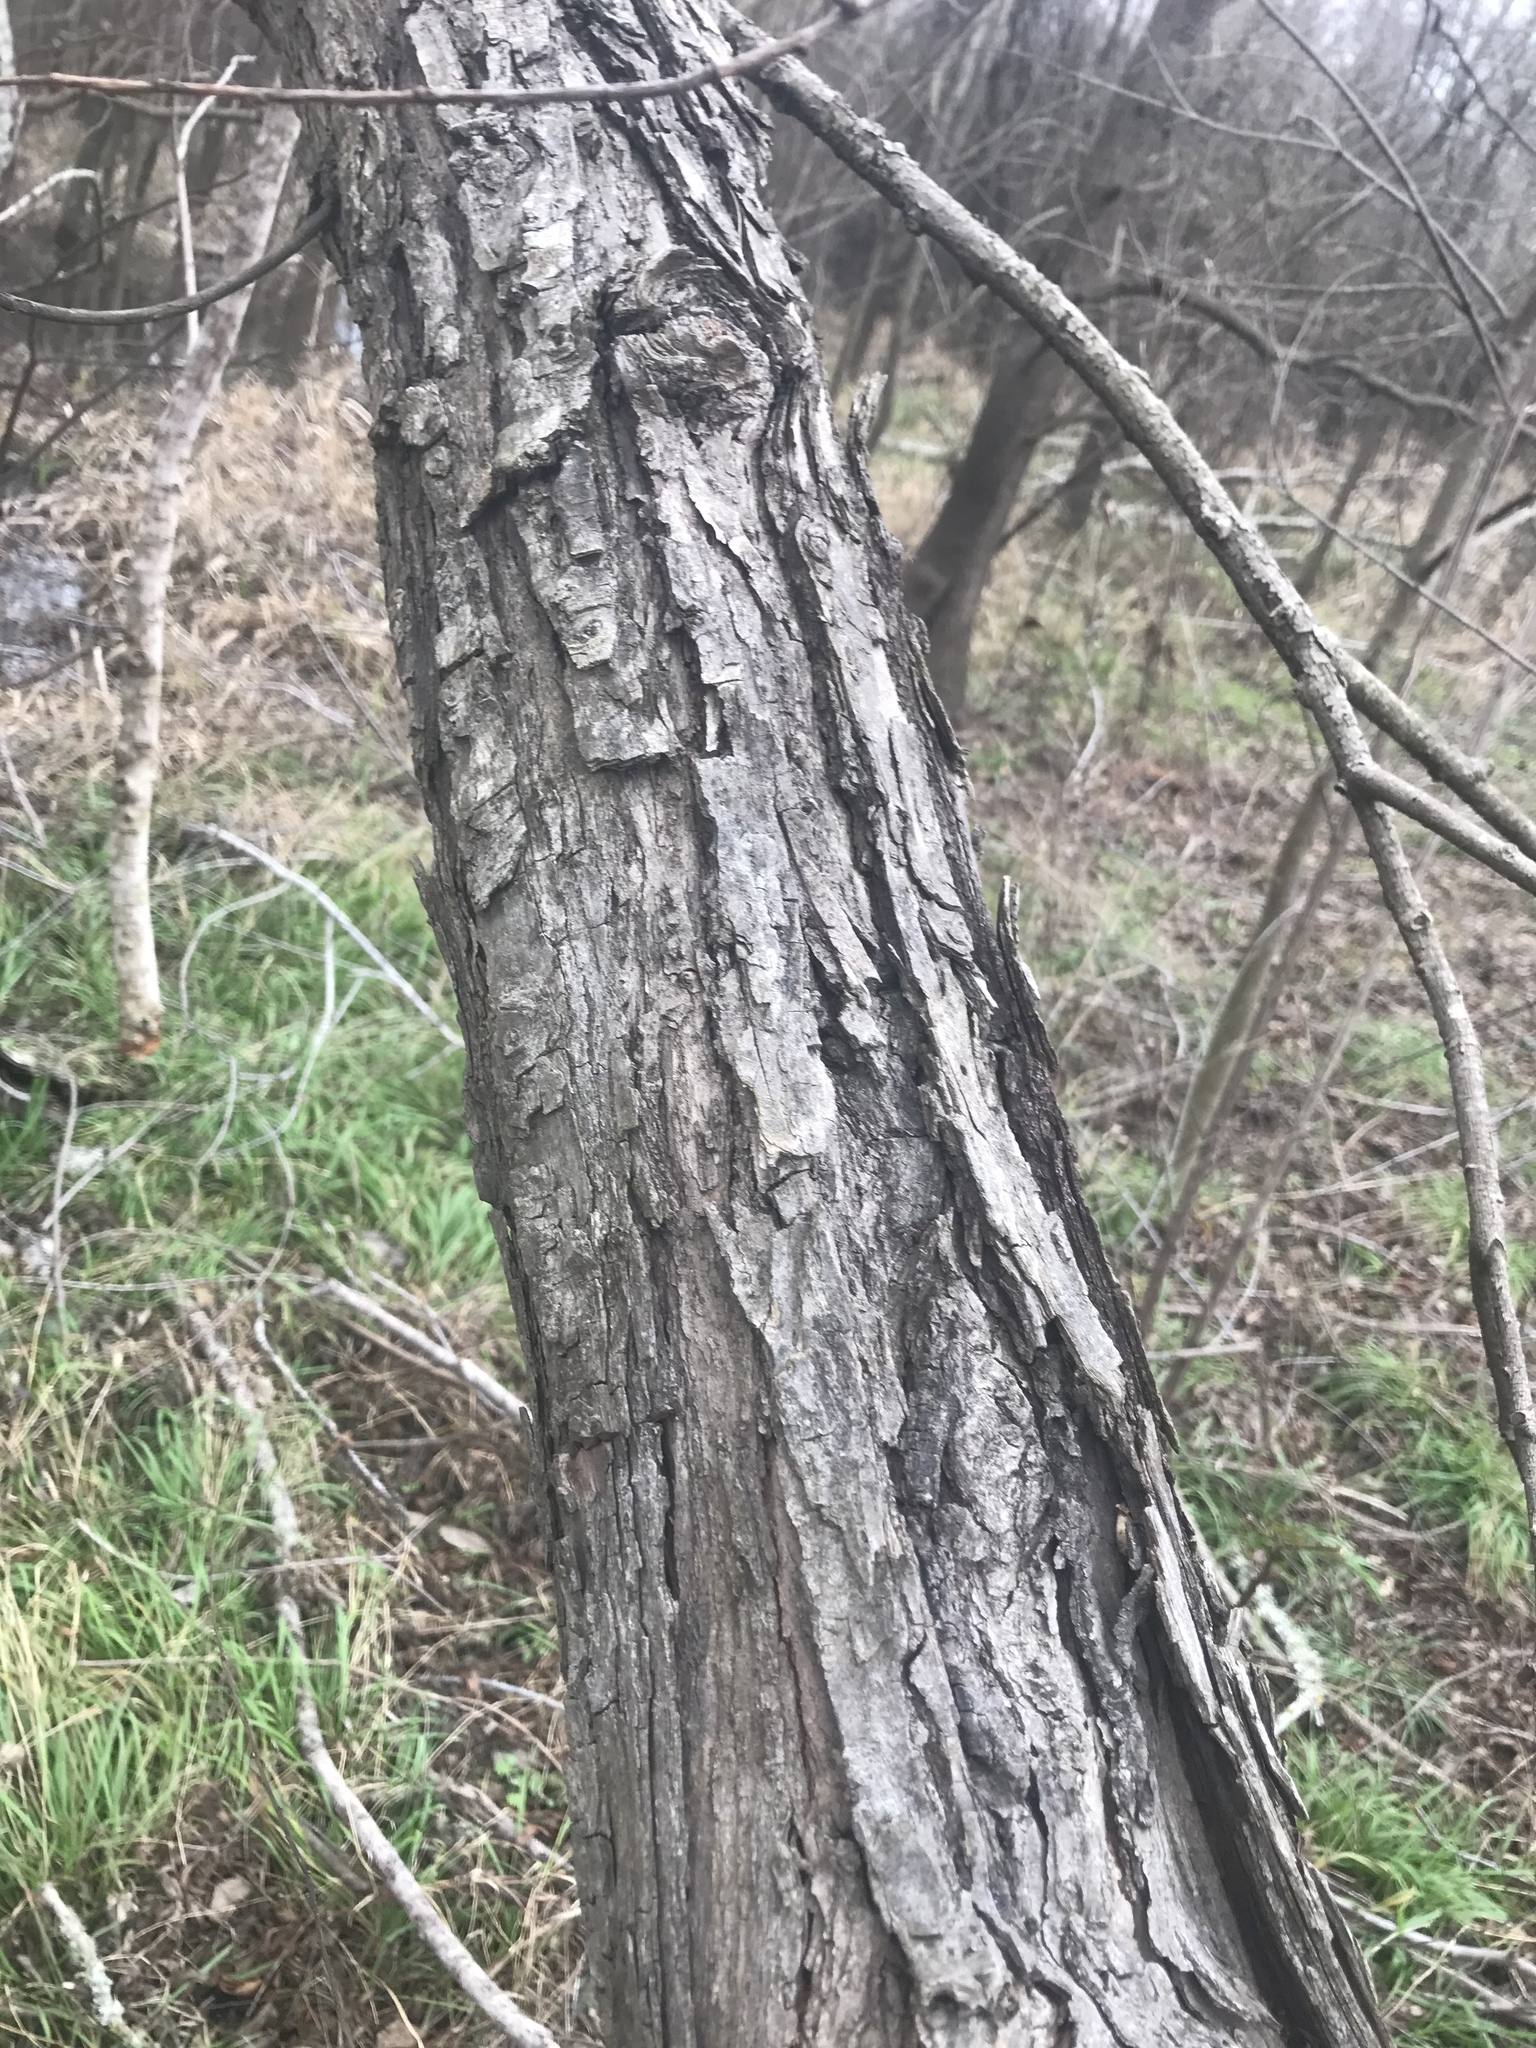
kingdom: Plantae
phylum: Tracheophyta
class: Magnoliopsida
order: Malpighiales
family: Salicaceae
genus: Salix
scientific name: Salix nigra
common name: Black willow
